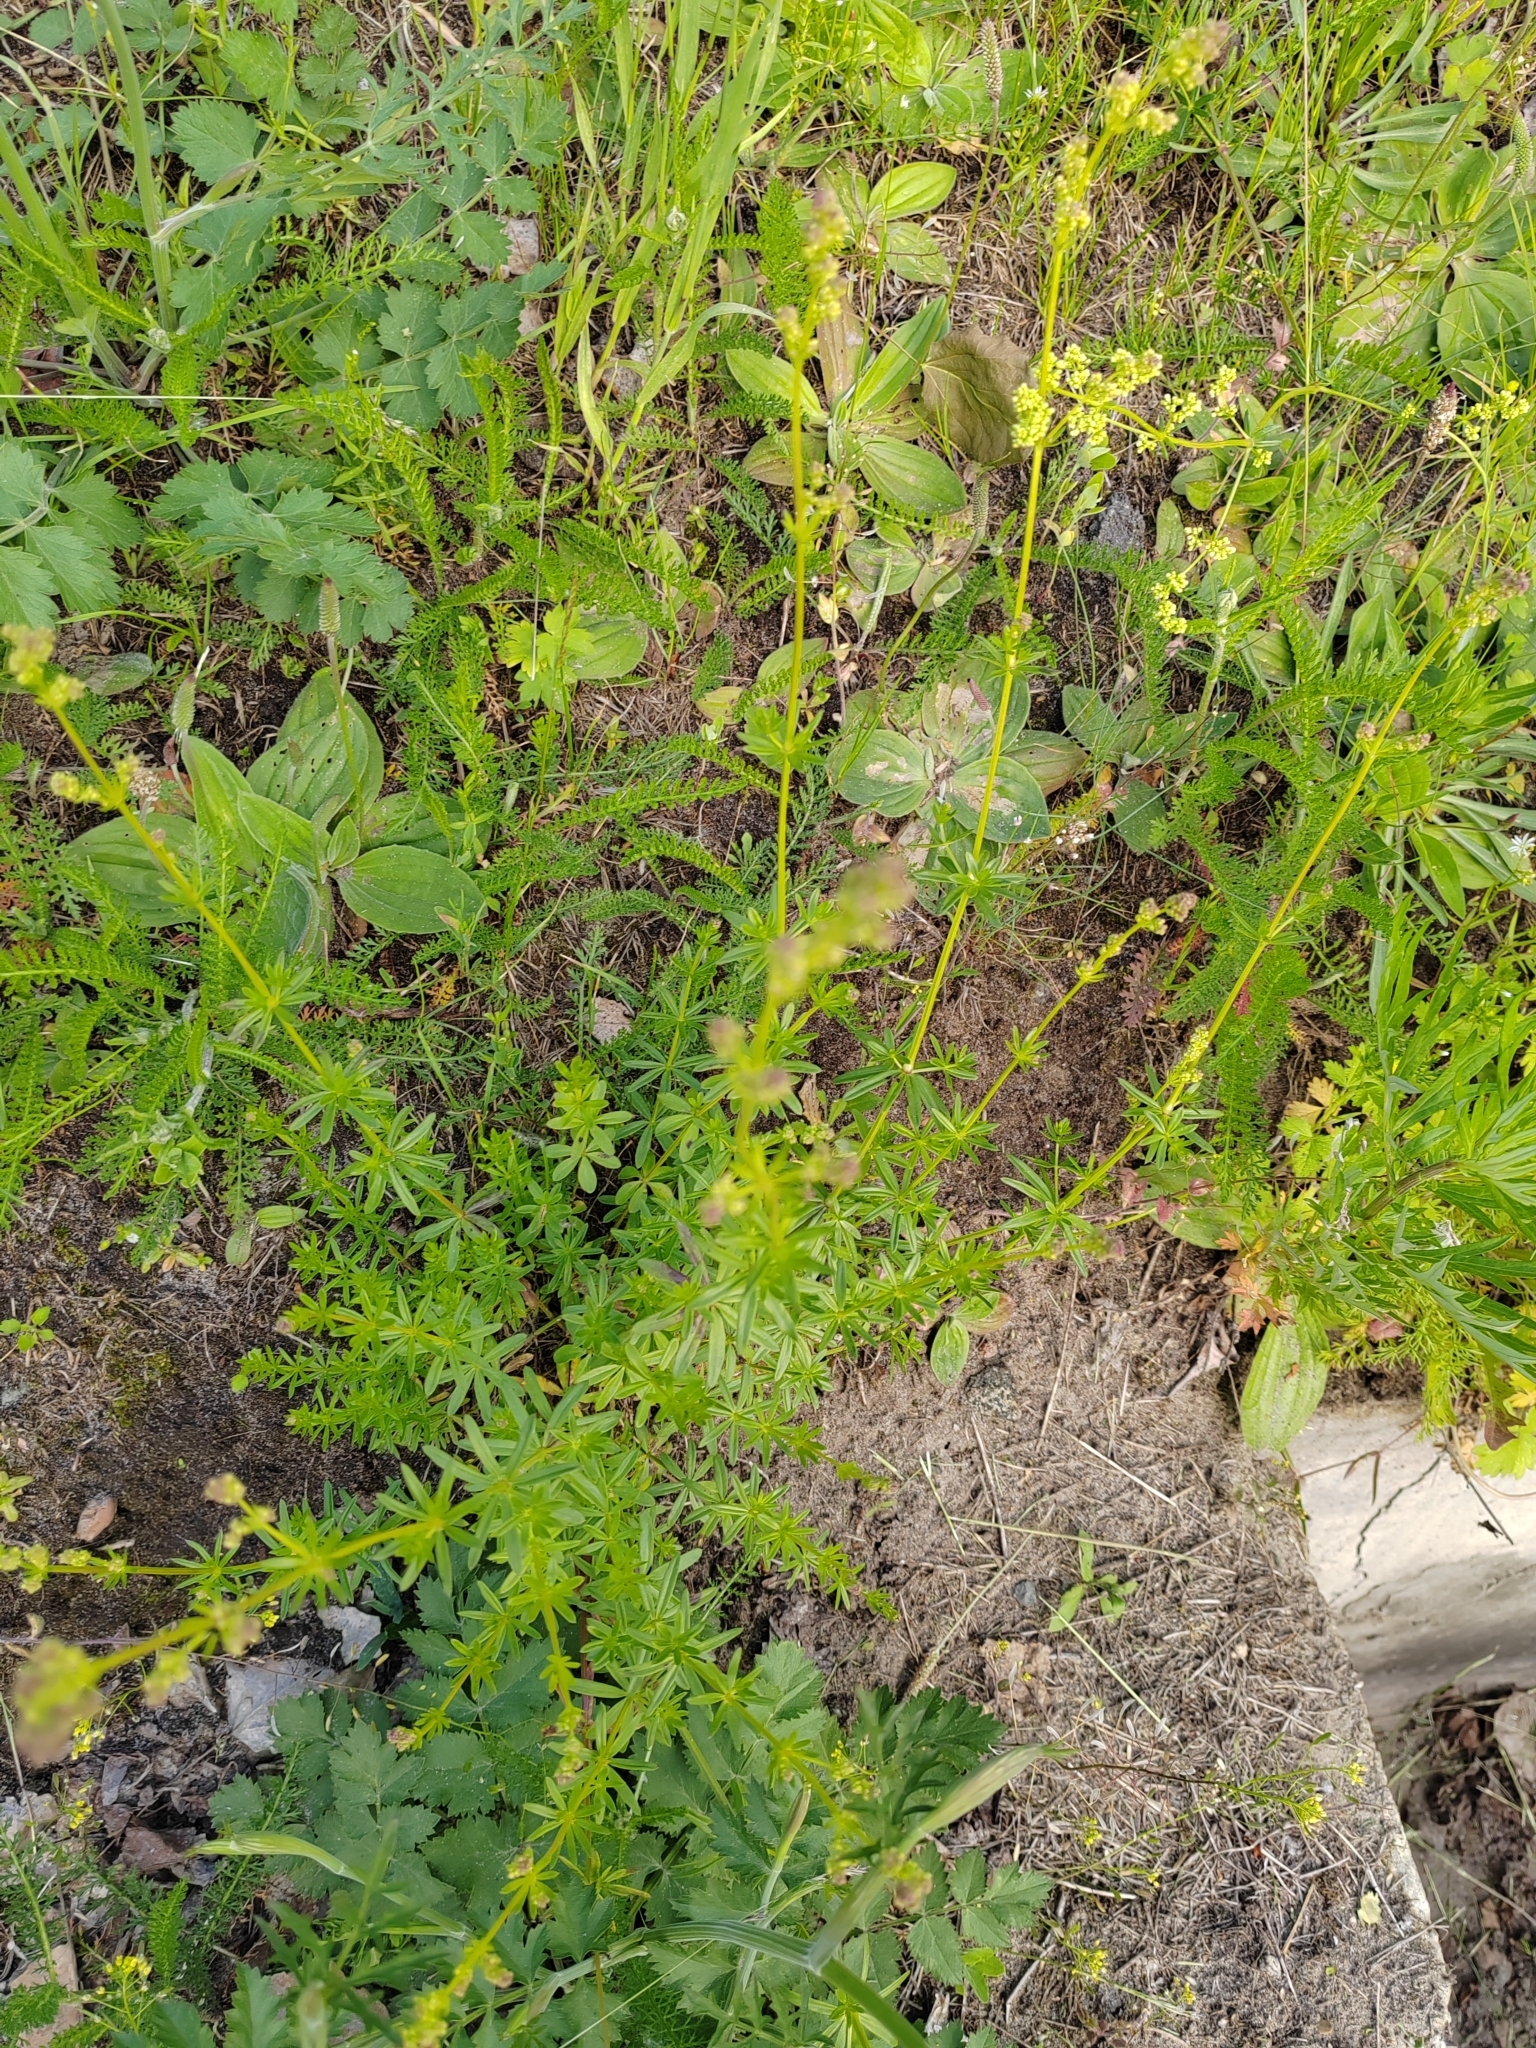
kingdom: Plantae
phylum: Tracheophyta
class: Magnoliopsida
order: Gentianales
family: Rubiaceae
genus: Galium
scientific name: Galium mollugo
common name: Hedge bedstraw
